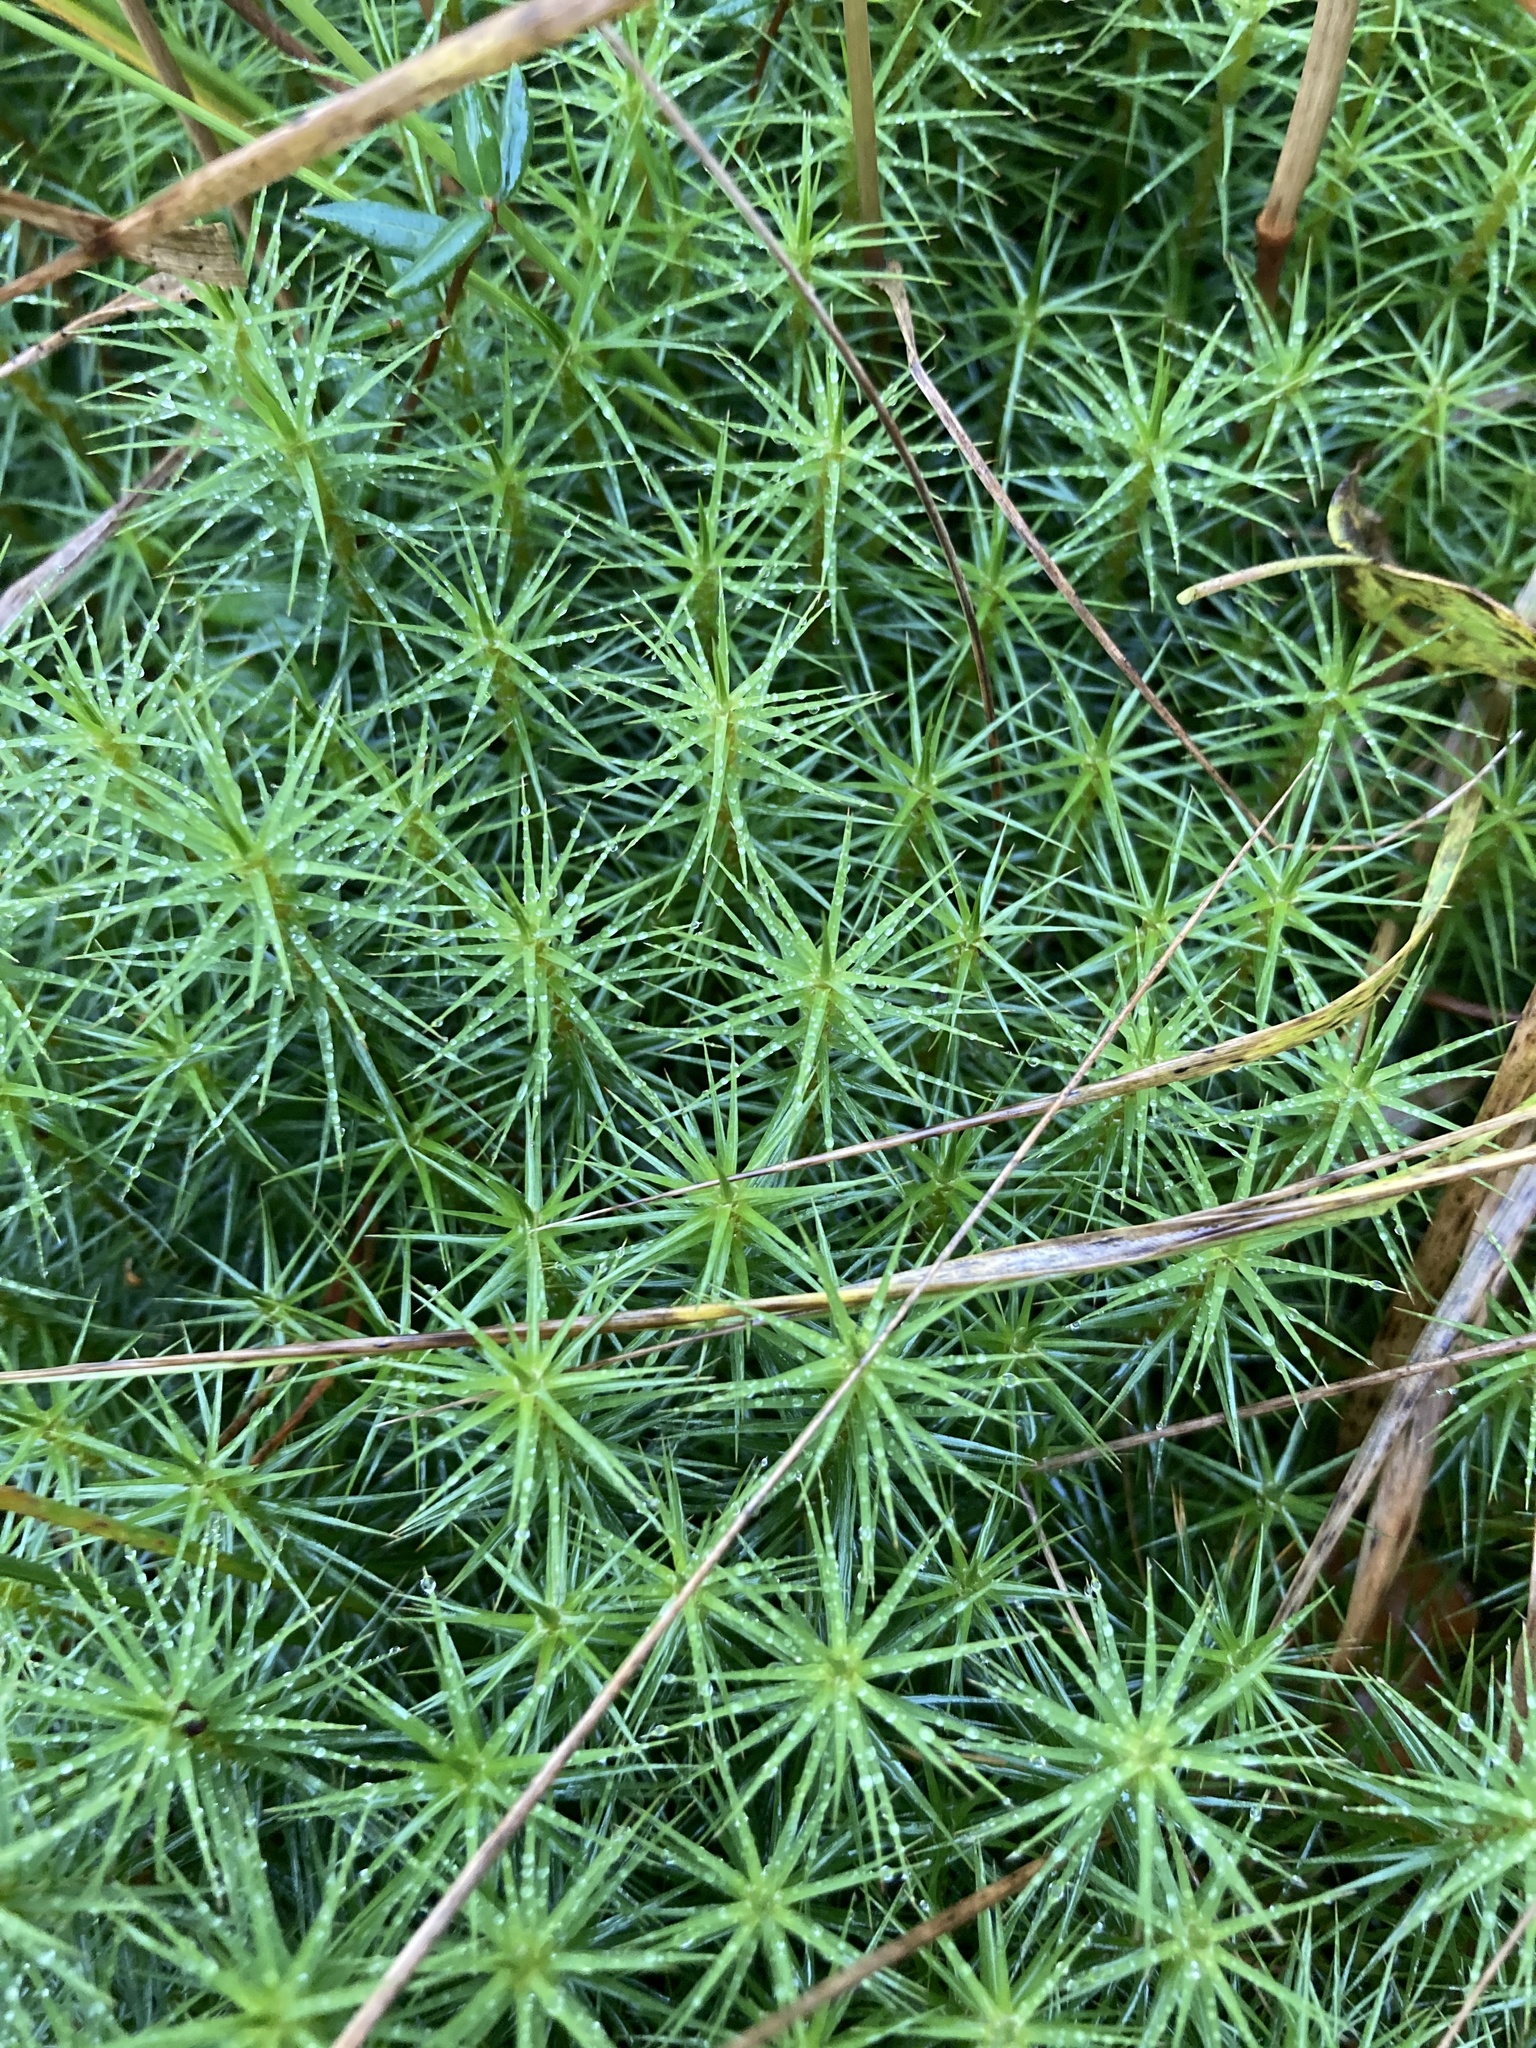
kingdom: Plantae
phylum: Bryophyta
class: Polytrichopsida
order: Polytrichales
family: Polytrichaceae
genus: Polytrichum
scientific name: Polytrichum commune
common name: Common haircap
